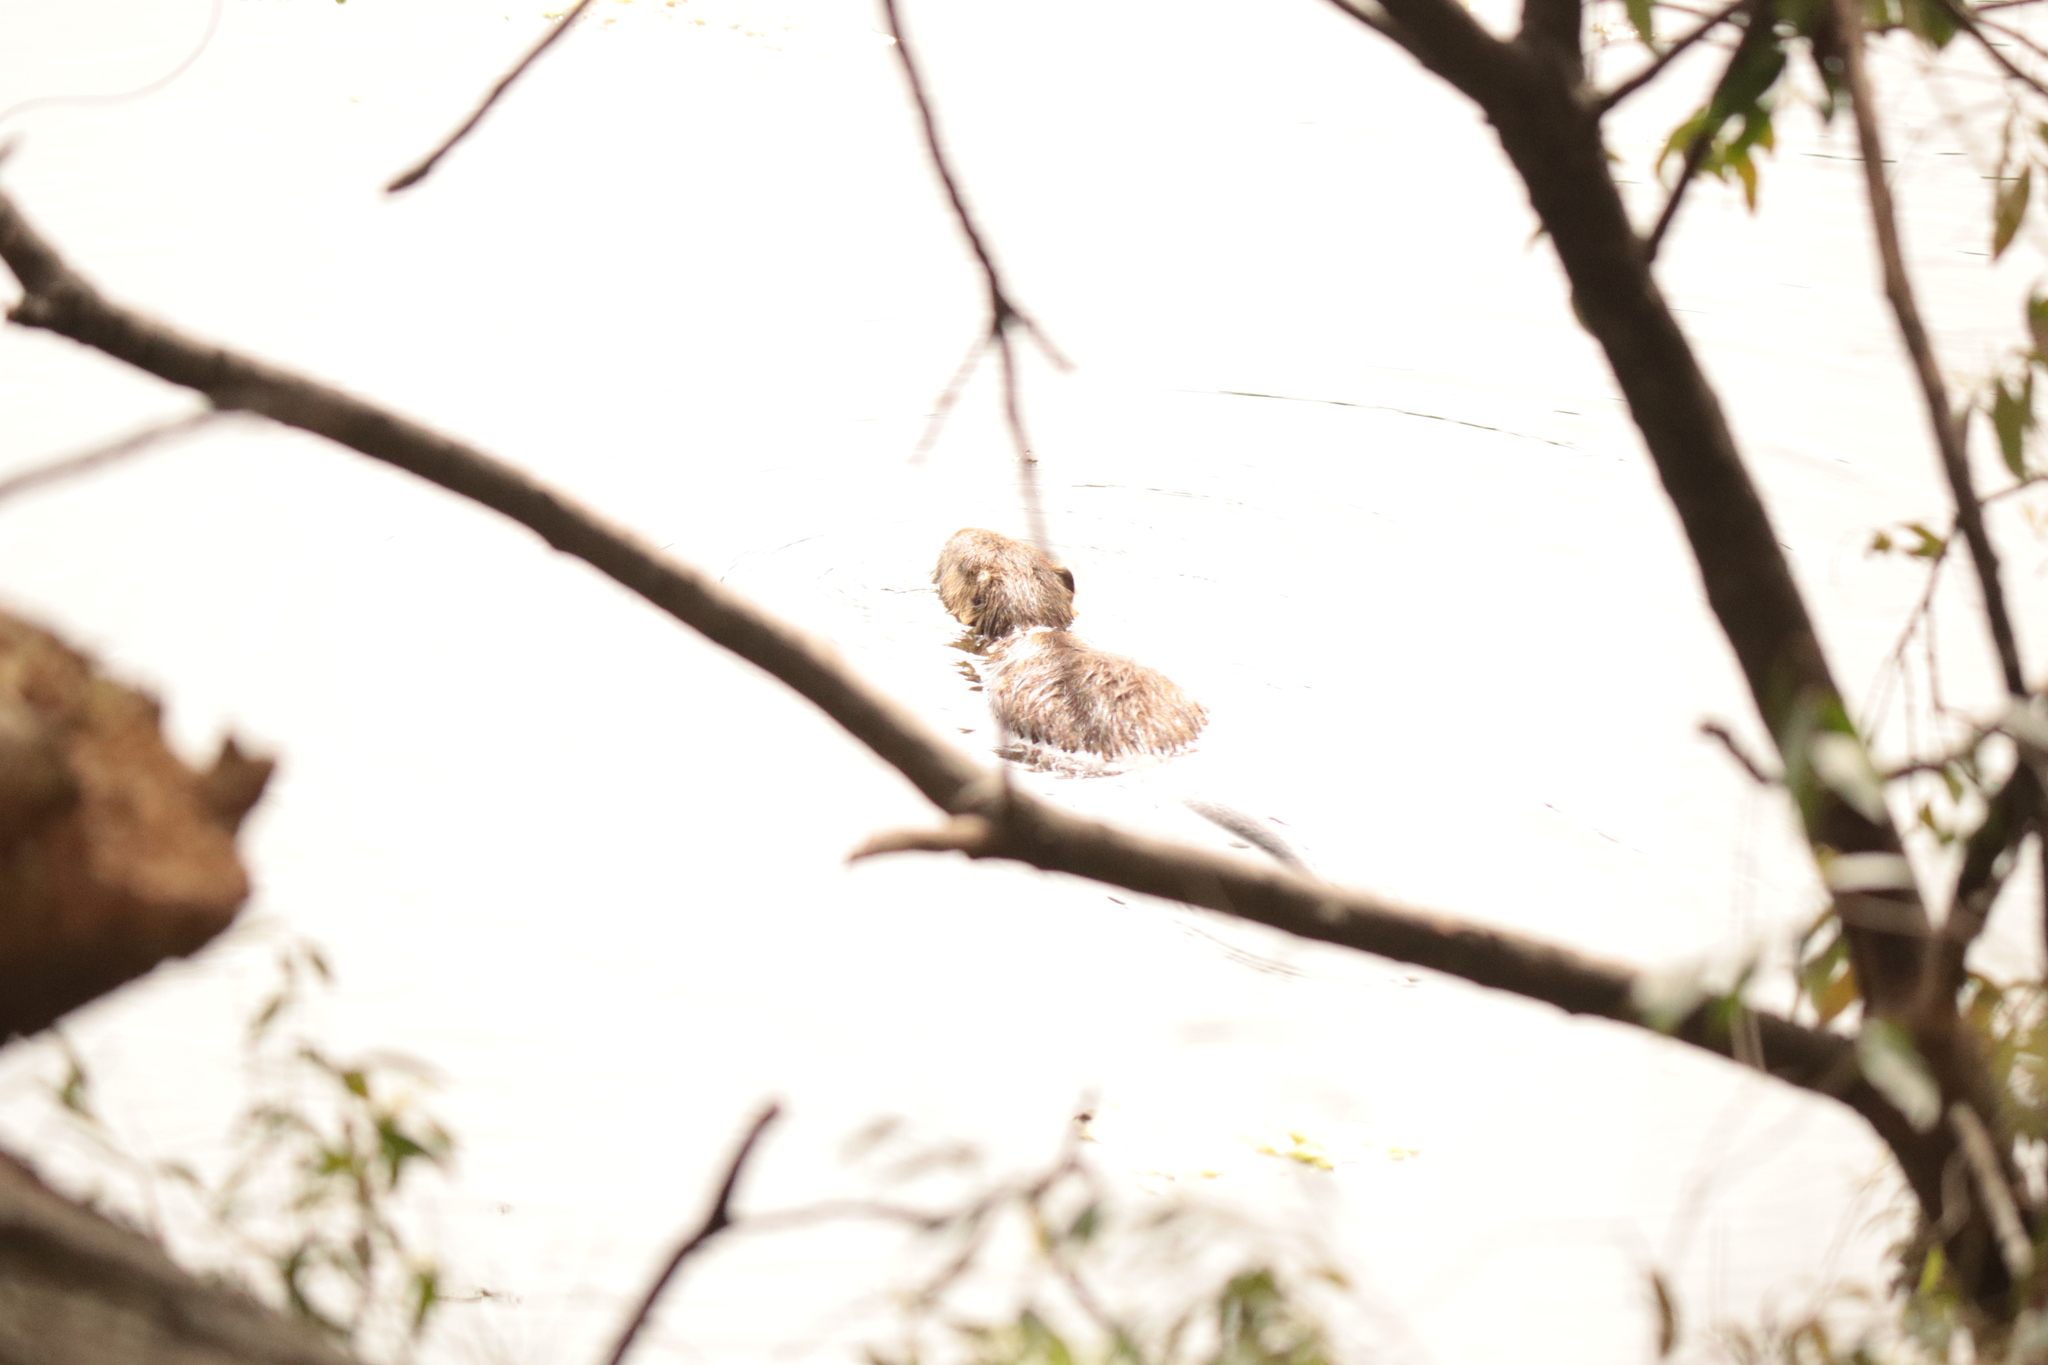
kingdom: Animalia
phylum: Chordata
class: Mammalia
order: Rodentia
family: Myocastoridae
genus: Myocastor
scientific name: Myocastor coypus
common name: Coypu
